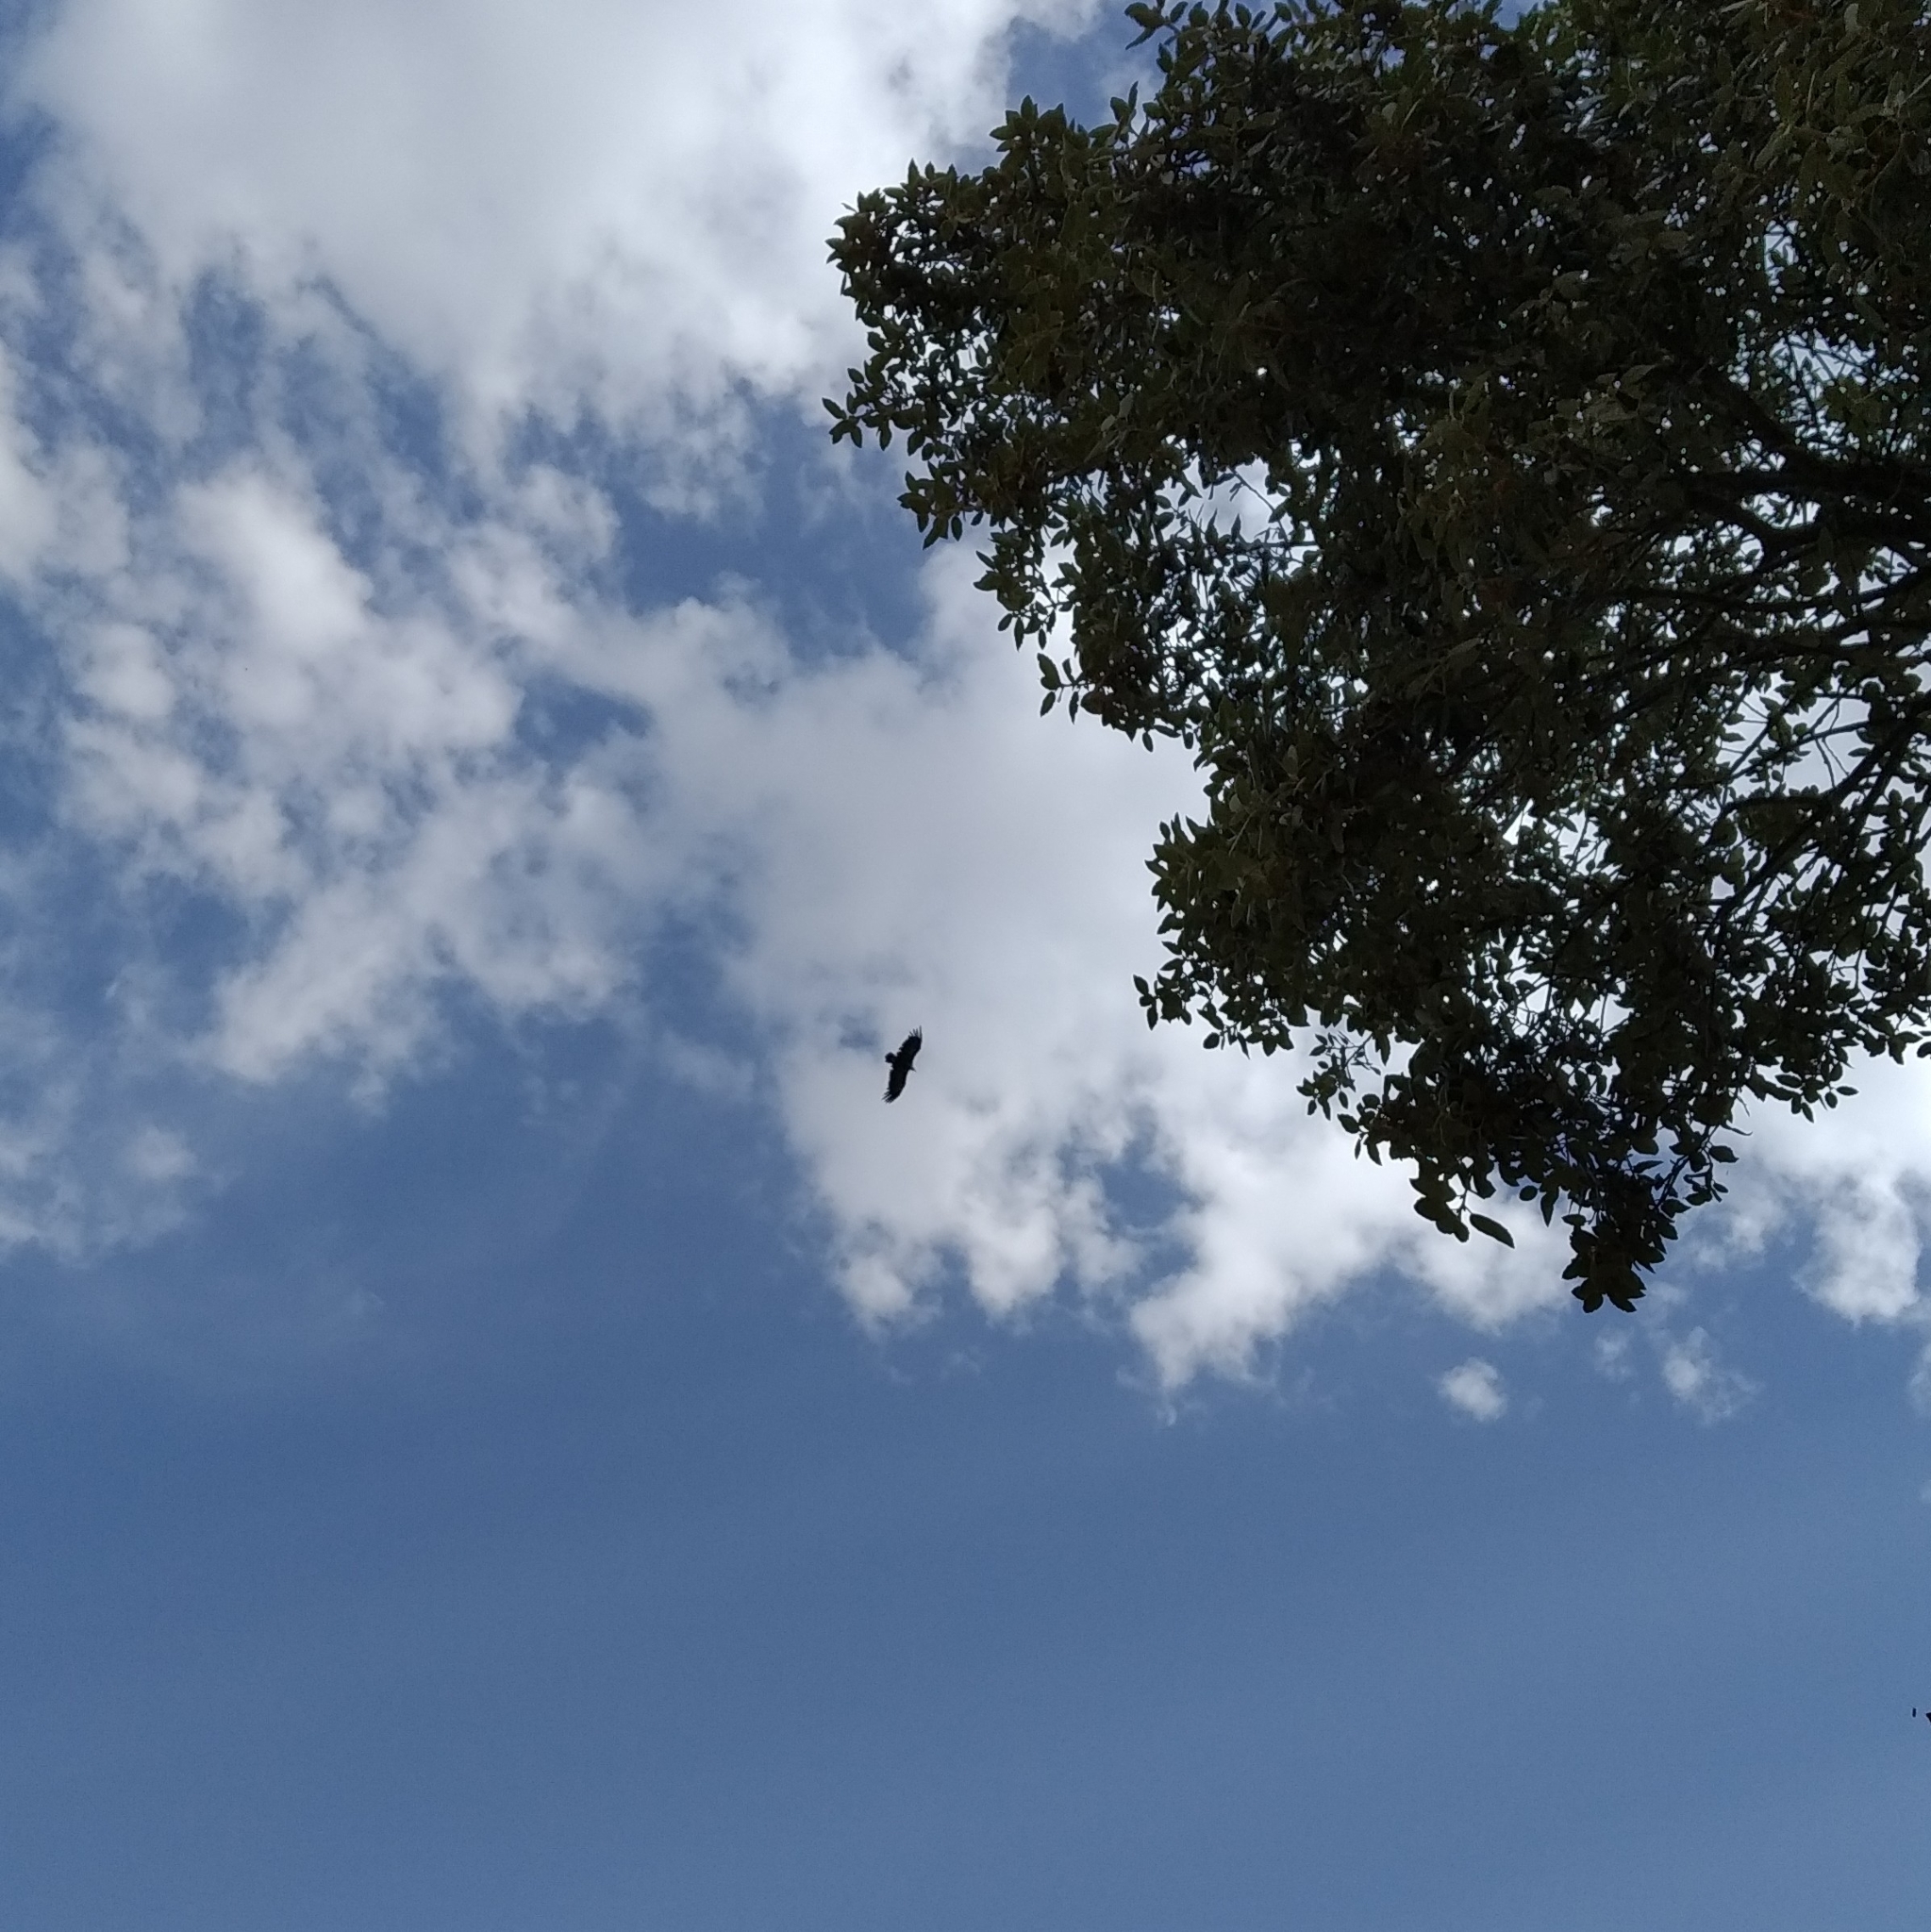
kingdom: Animalia
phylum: Chordata
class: Aves
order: Accipitriformes
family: Accipitridae
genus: Gyps
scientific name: Gyps fulvus
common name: Griffon vulture
